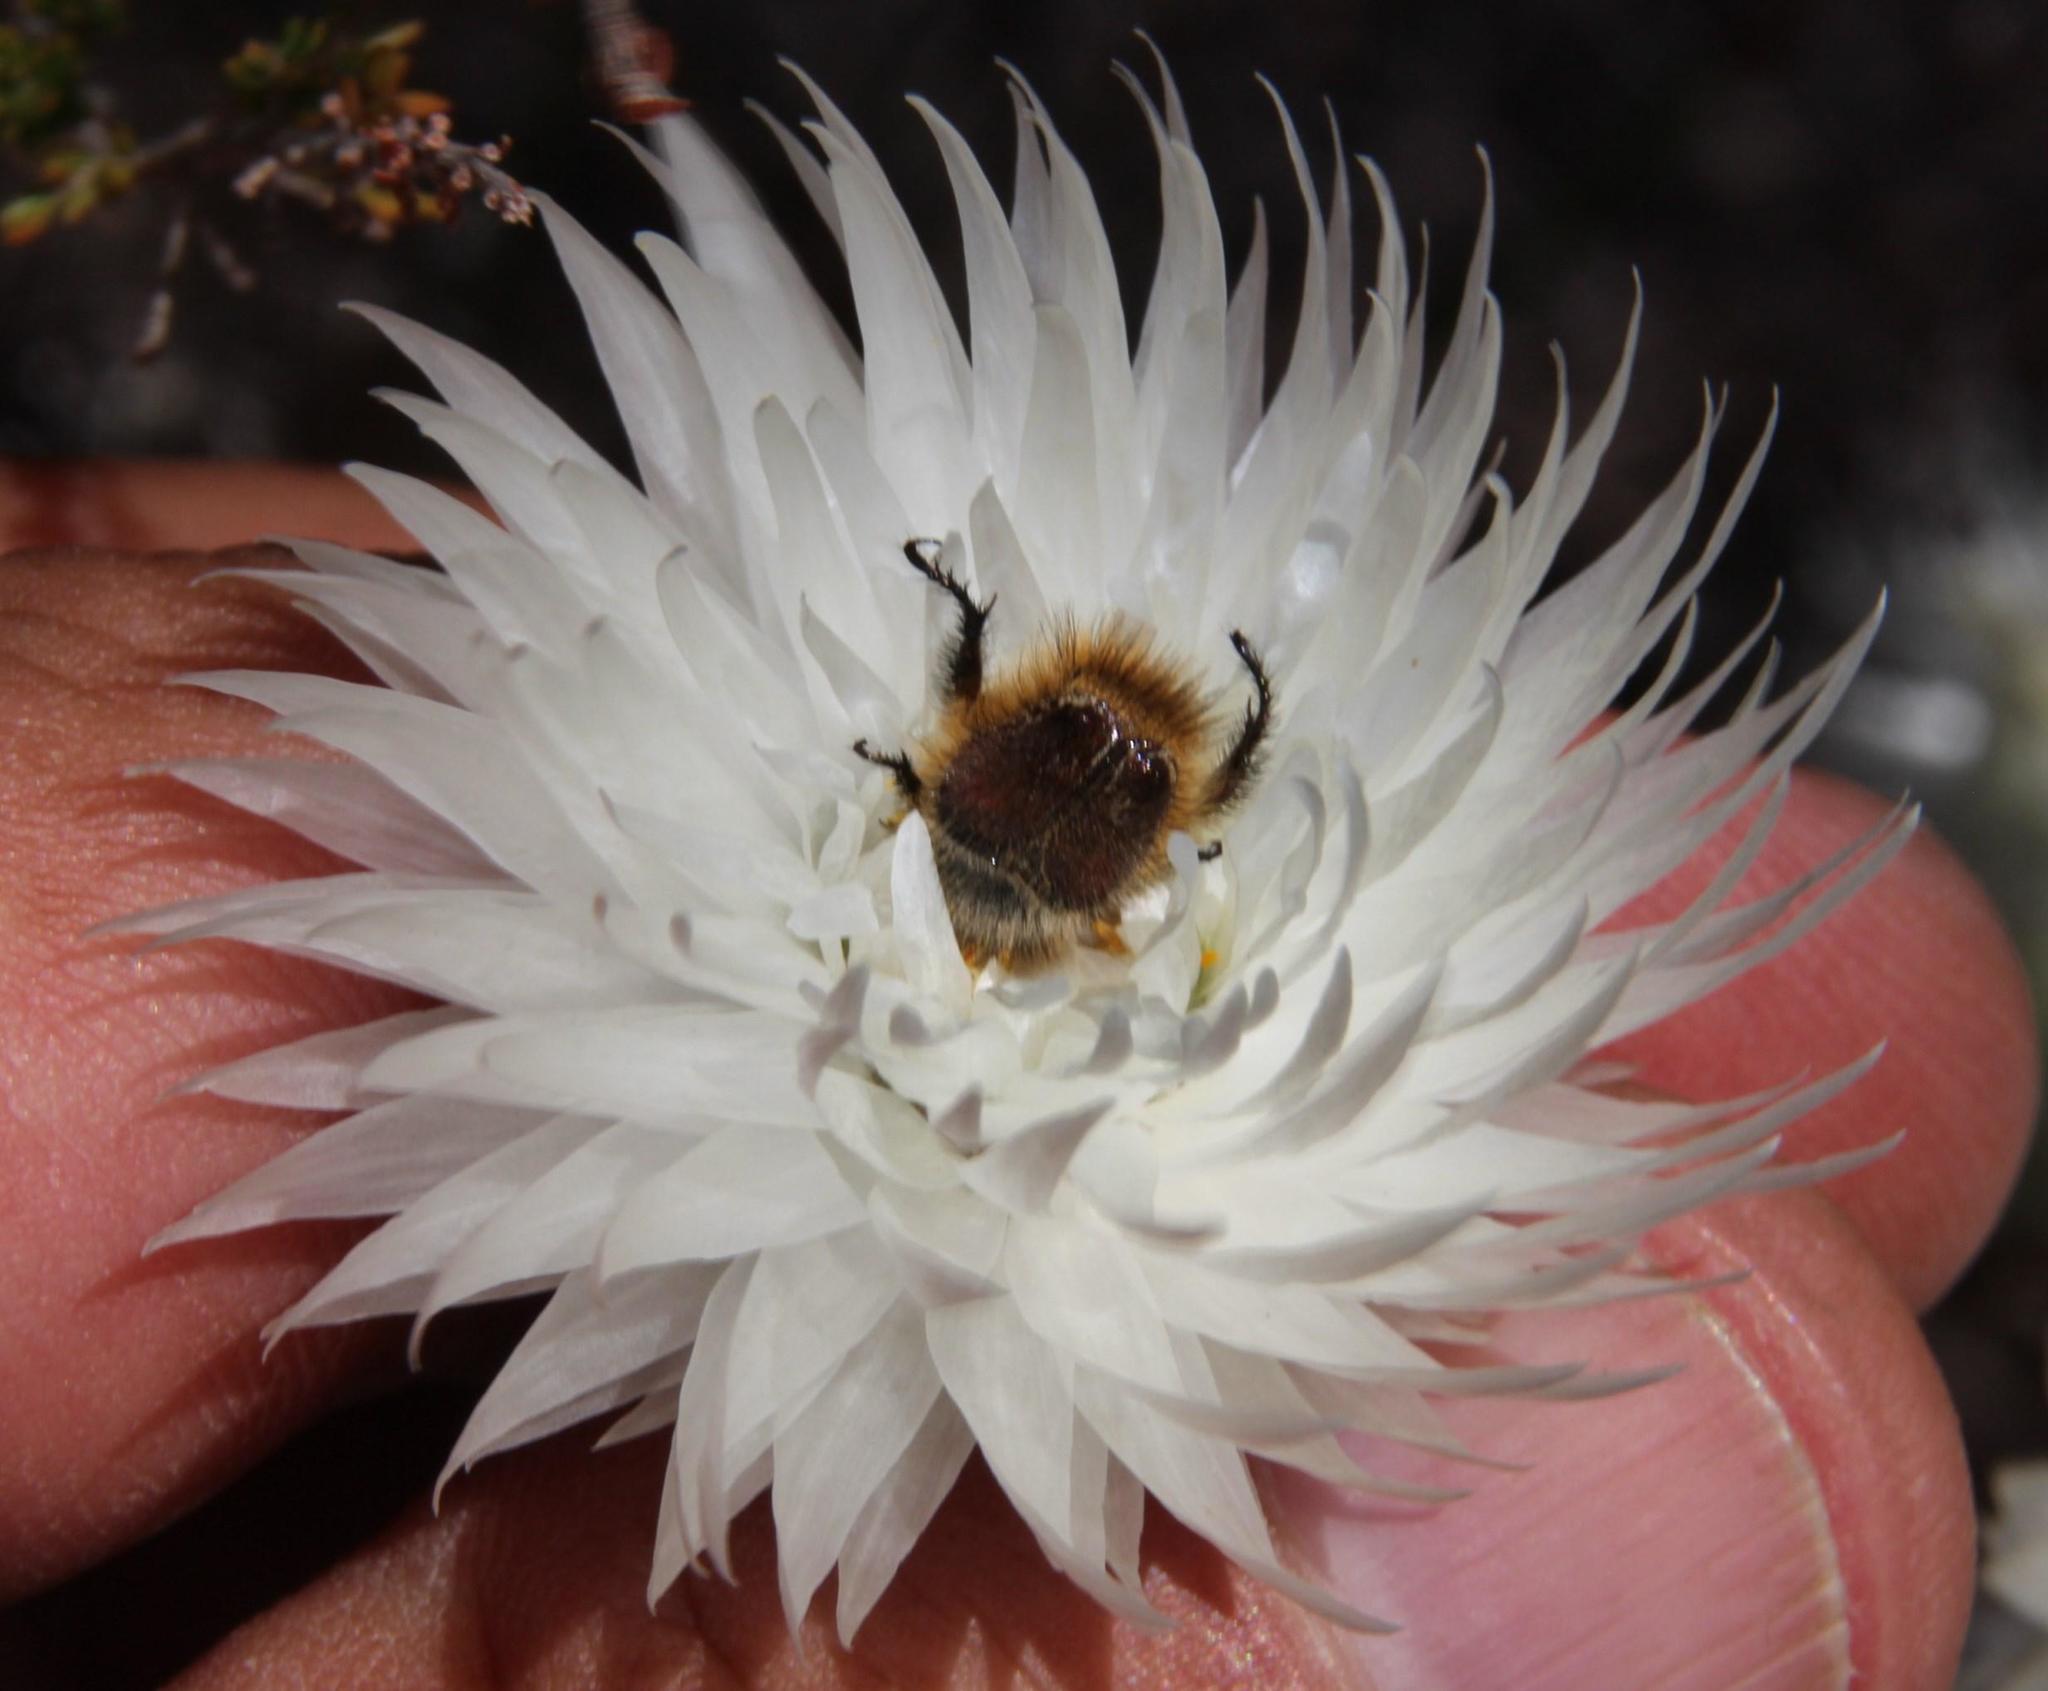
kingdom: Plantae
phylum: Tracheophyta
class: Magnoliopsida
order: Asterales
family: Asteraceae
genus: Syncarpha
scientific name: Syncarpha vestita
